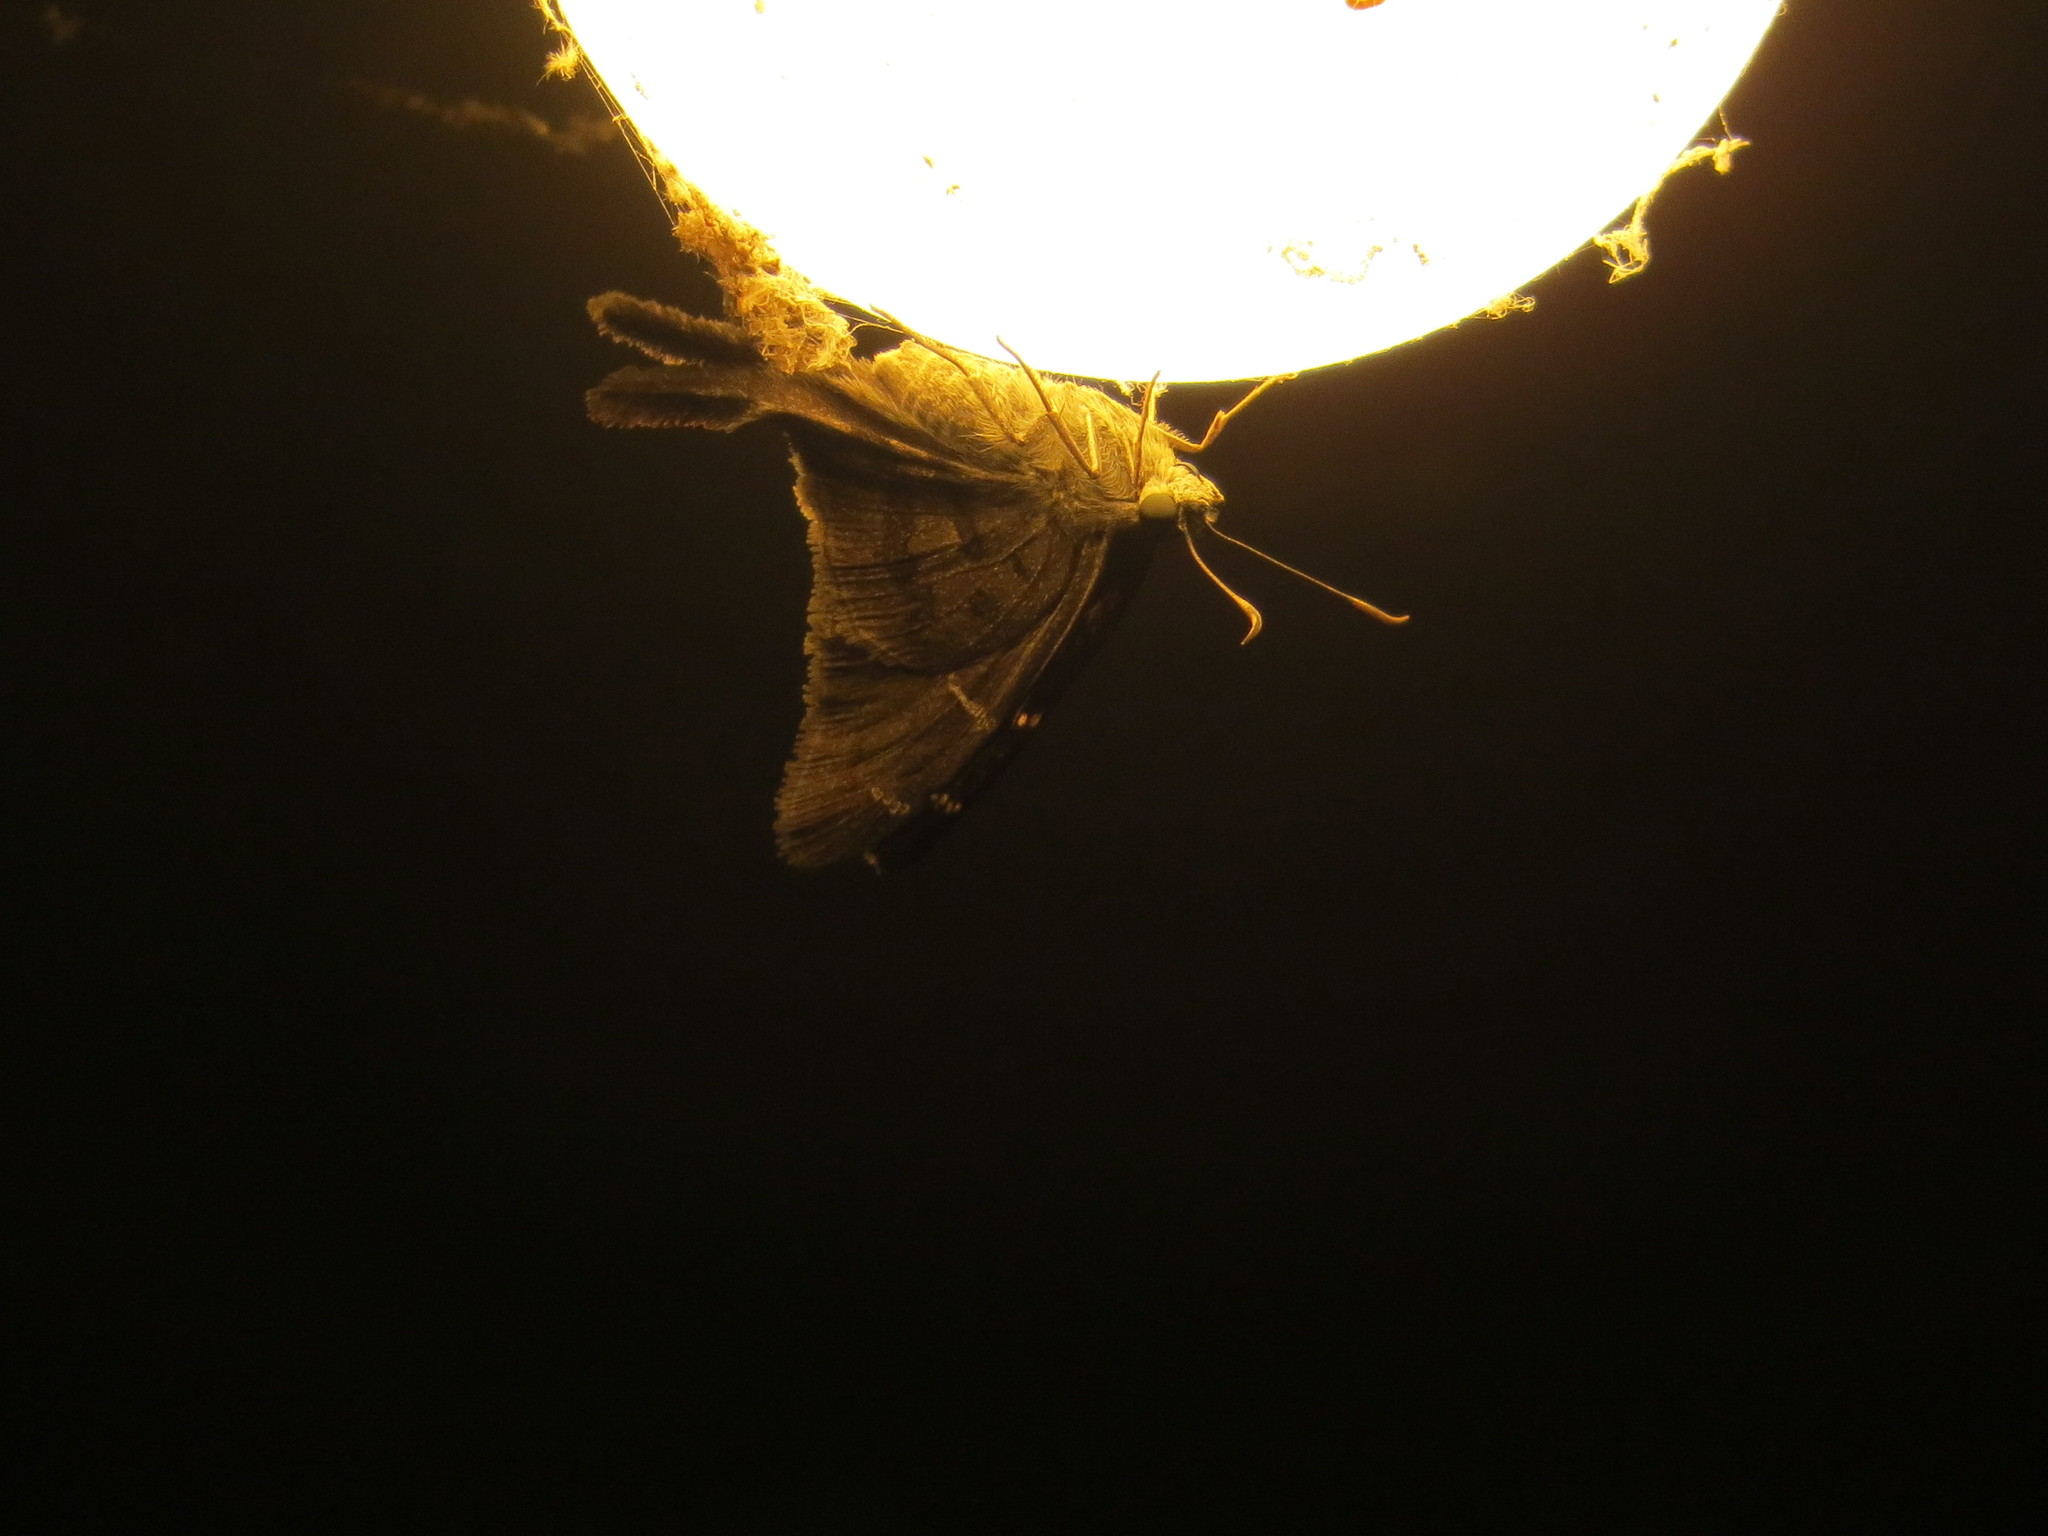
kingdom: Animalia
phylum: Arthropoda
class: Insecta
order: Lepidoptera
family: Hesperiidae
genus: Urbanus
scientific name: Urbanus procne
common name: Brown longtail
